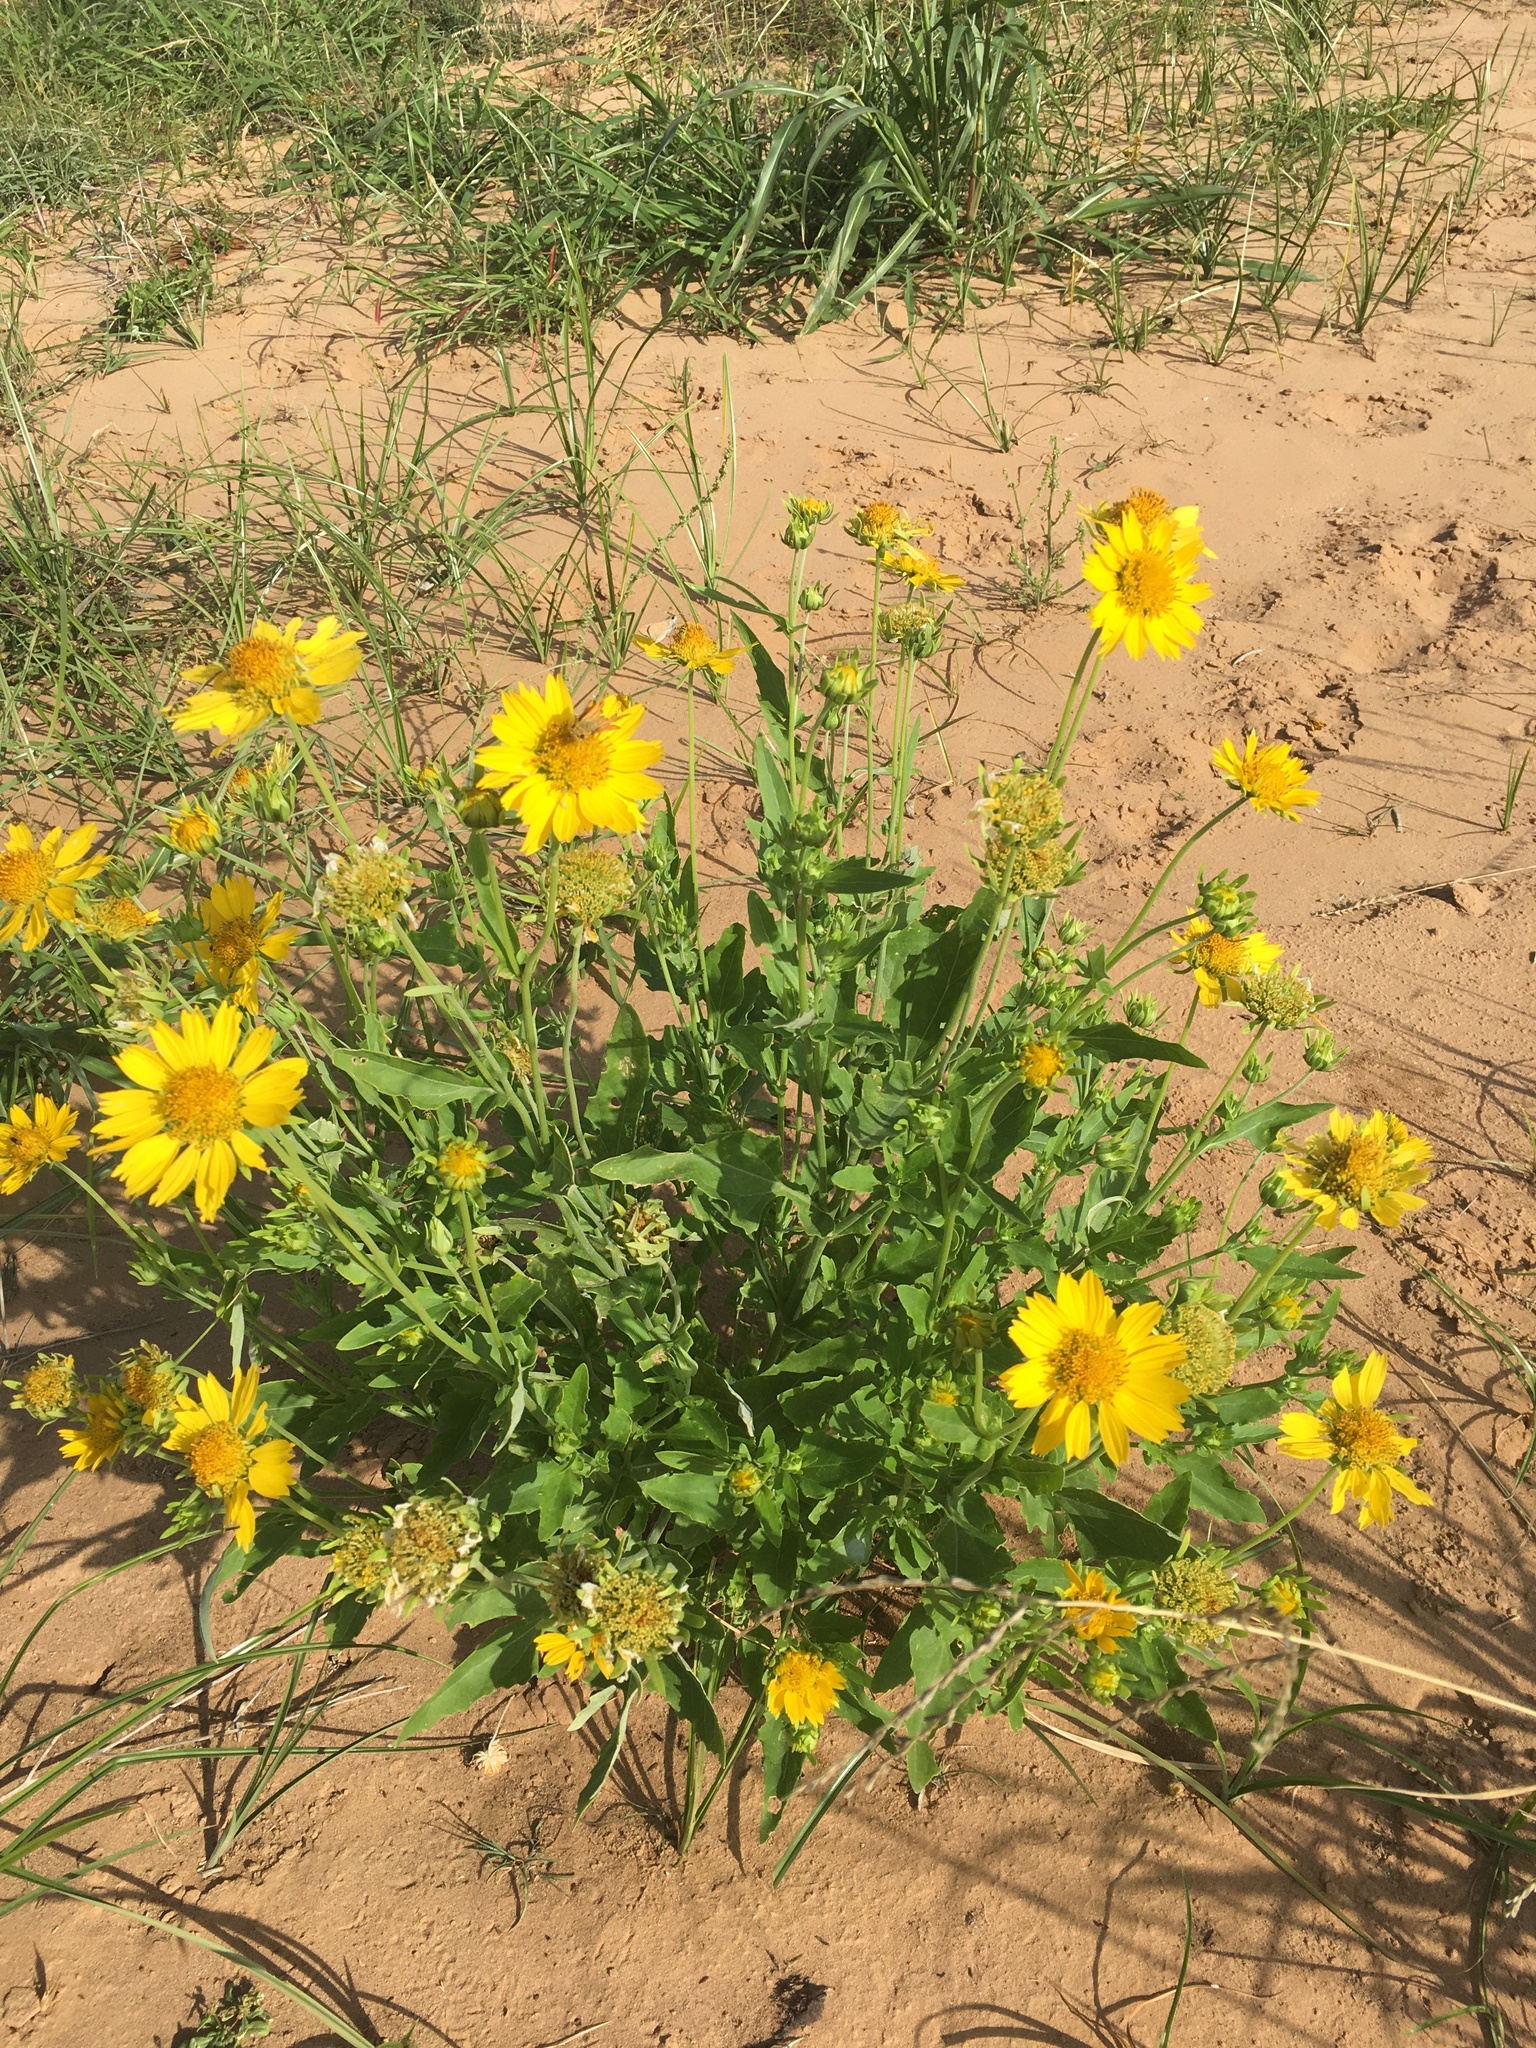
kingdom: Plantae
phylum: Tracheophyta
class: Magnoliopsida
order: Asterales
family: Asteraceae
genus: Verbesina
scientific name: Verbesina encelioides
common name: Golden crownbeard
